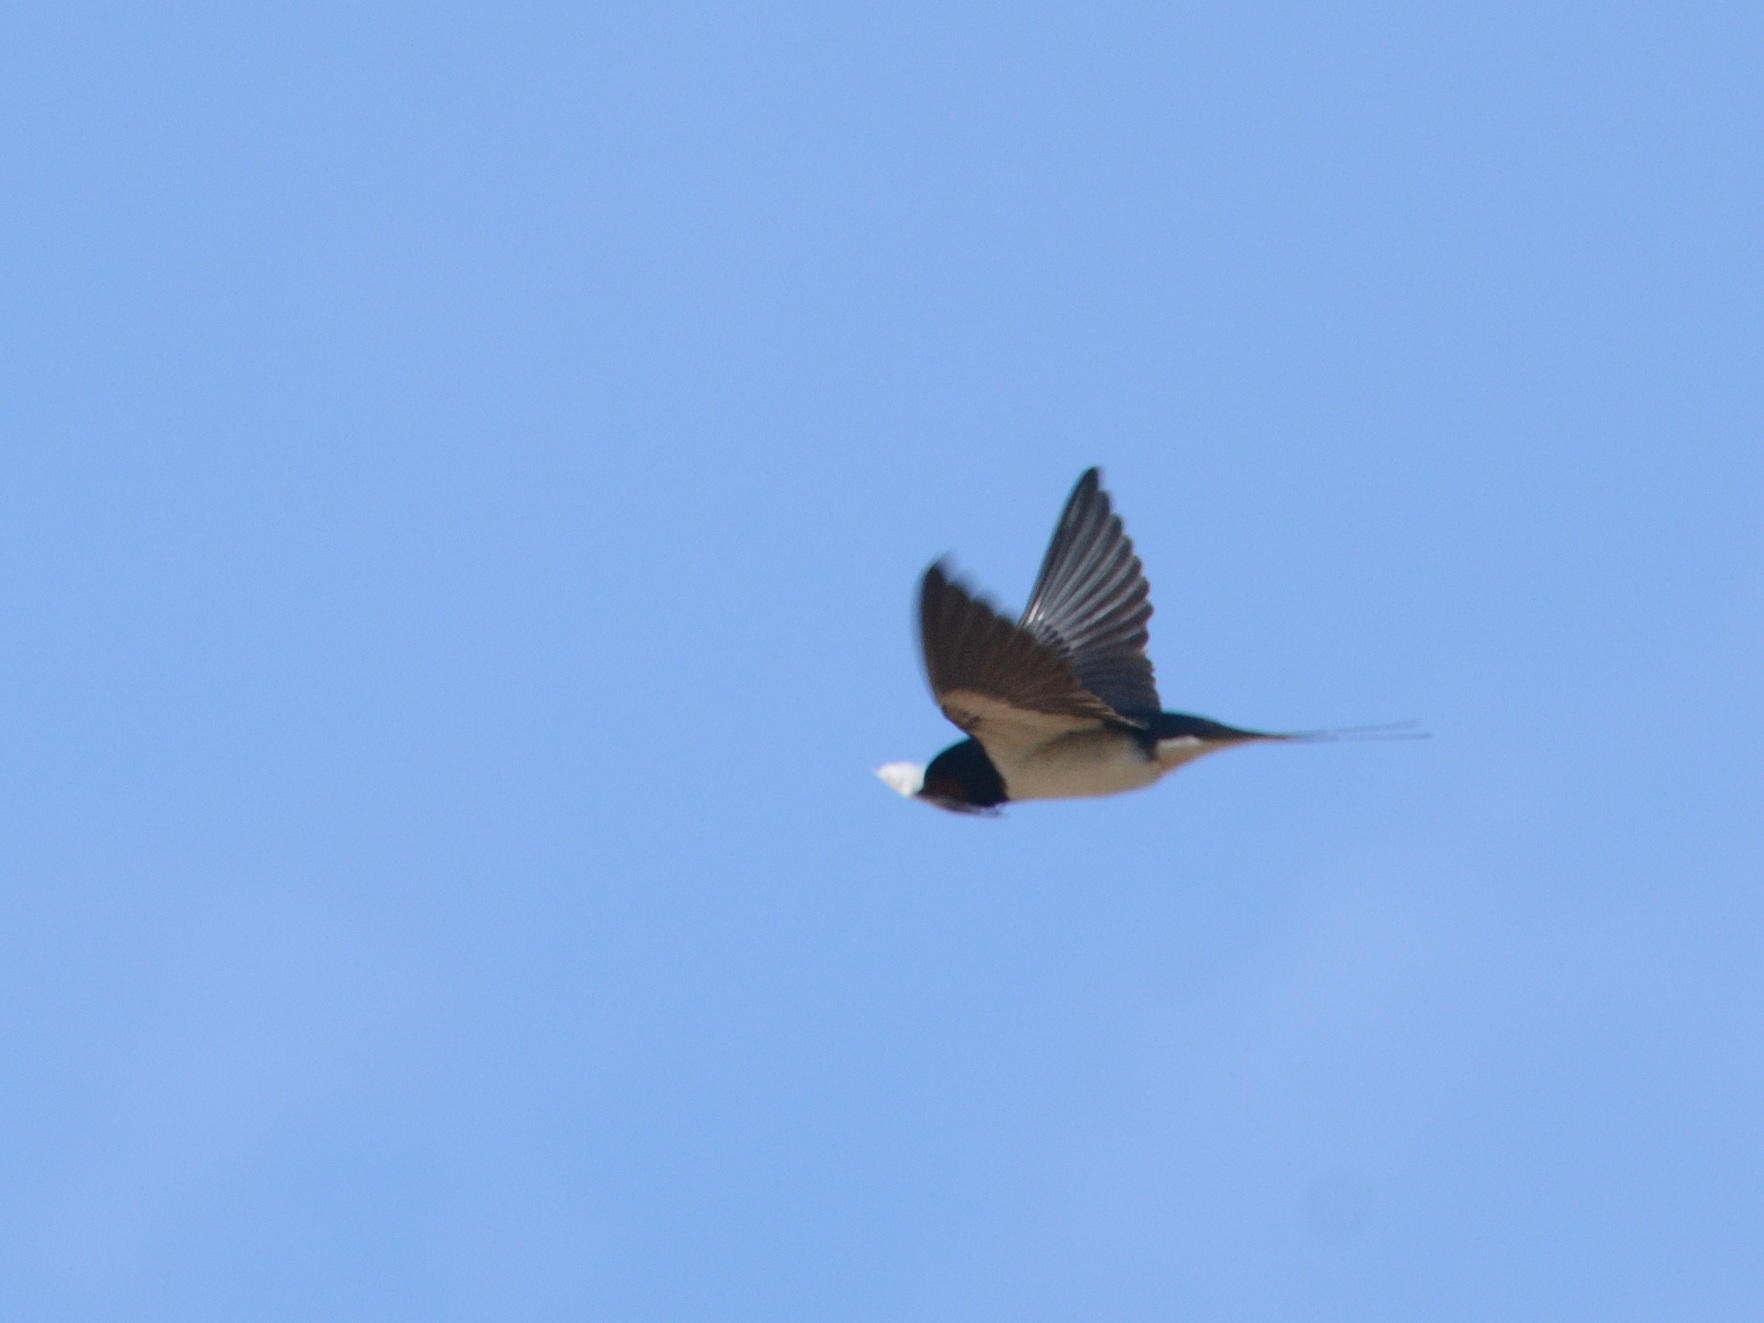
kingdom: Animalia
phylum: Chordata
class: Aves
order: Passeriformes
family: Hirundinidae
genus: Hirundo
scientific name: Hirundo rustica
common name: Barn swallow
